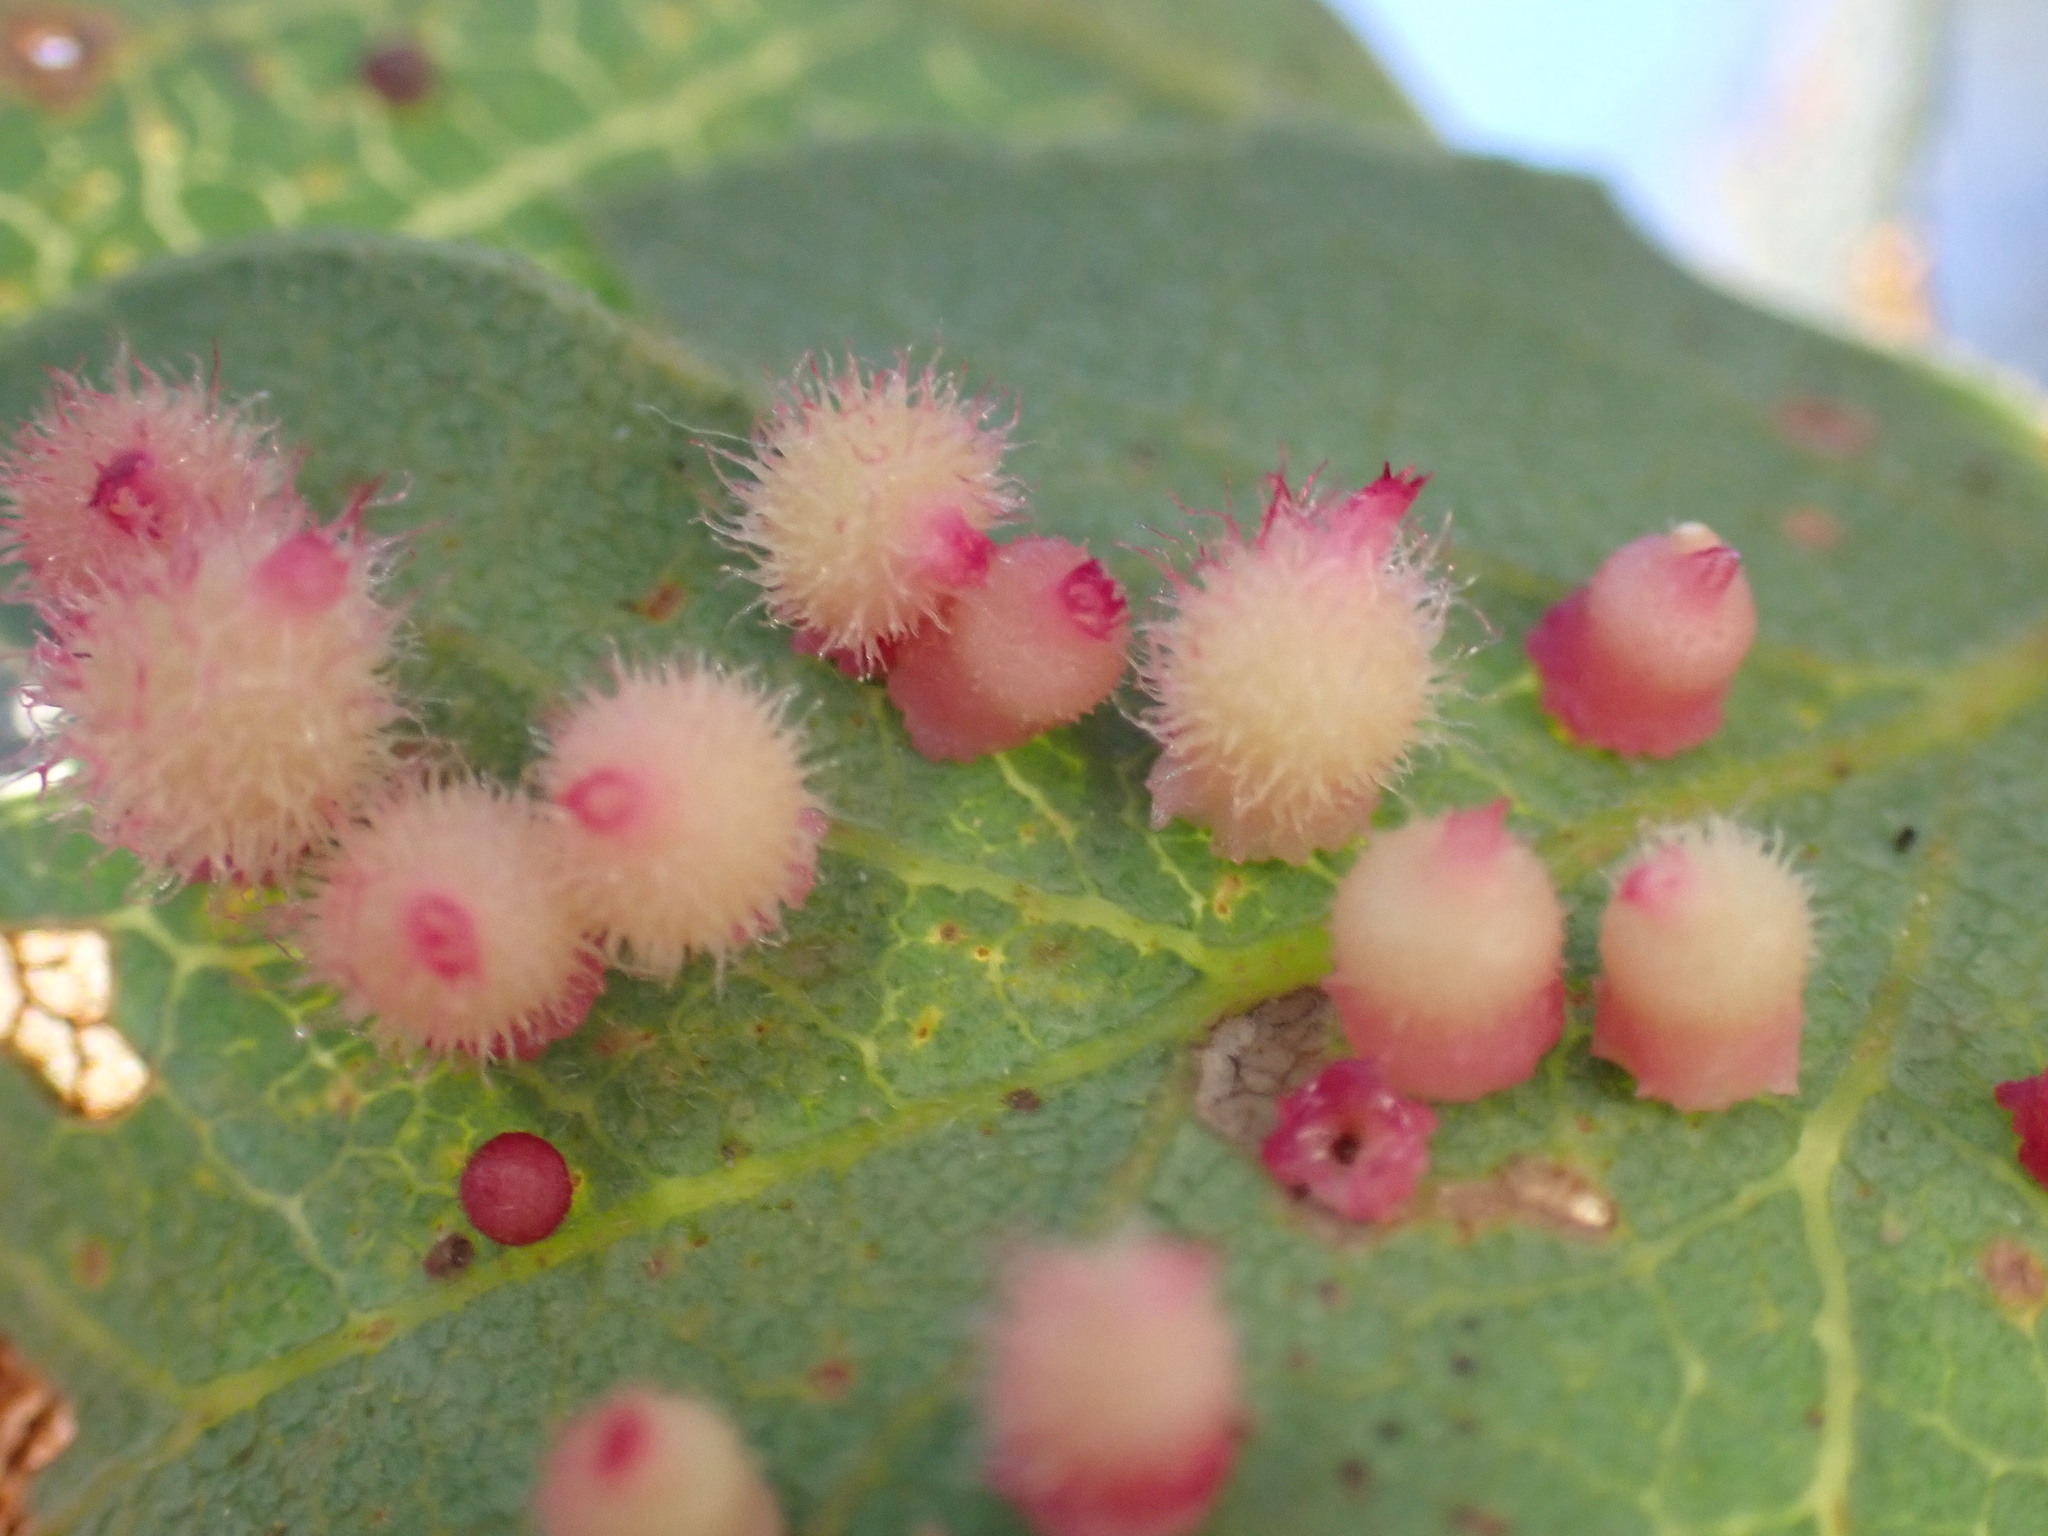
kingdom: Animalia
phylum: Arthropoda
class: Insecta
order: Hymenoptera
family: Cynipidae
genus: Andricus
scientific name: Andricus
